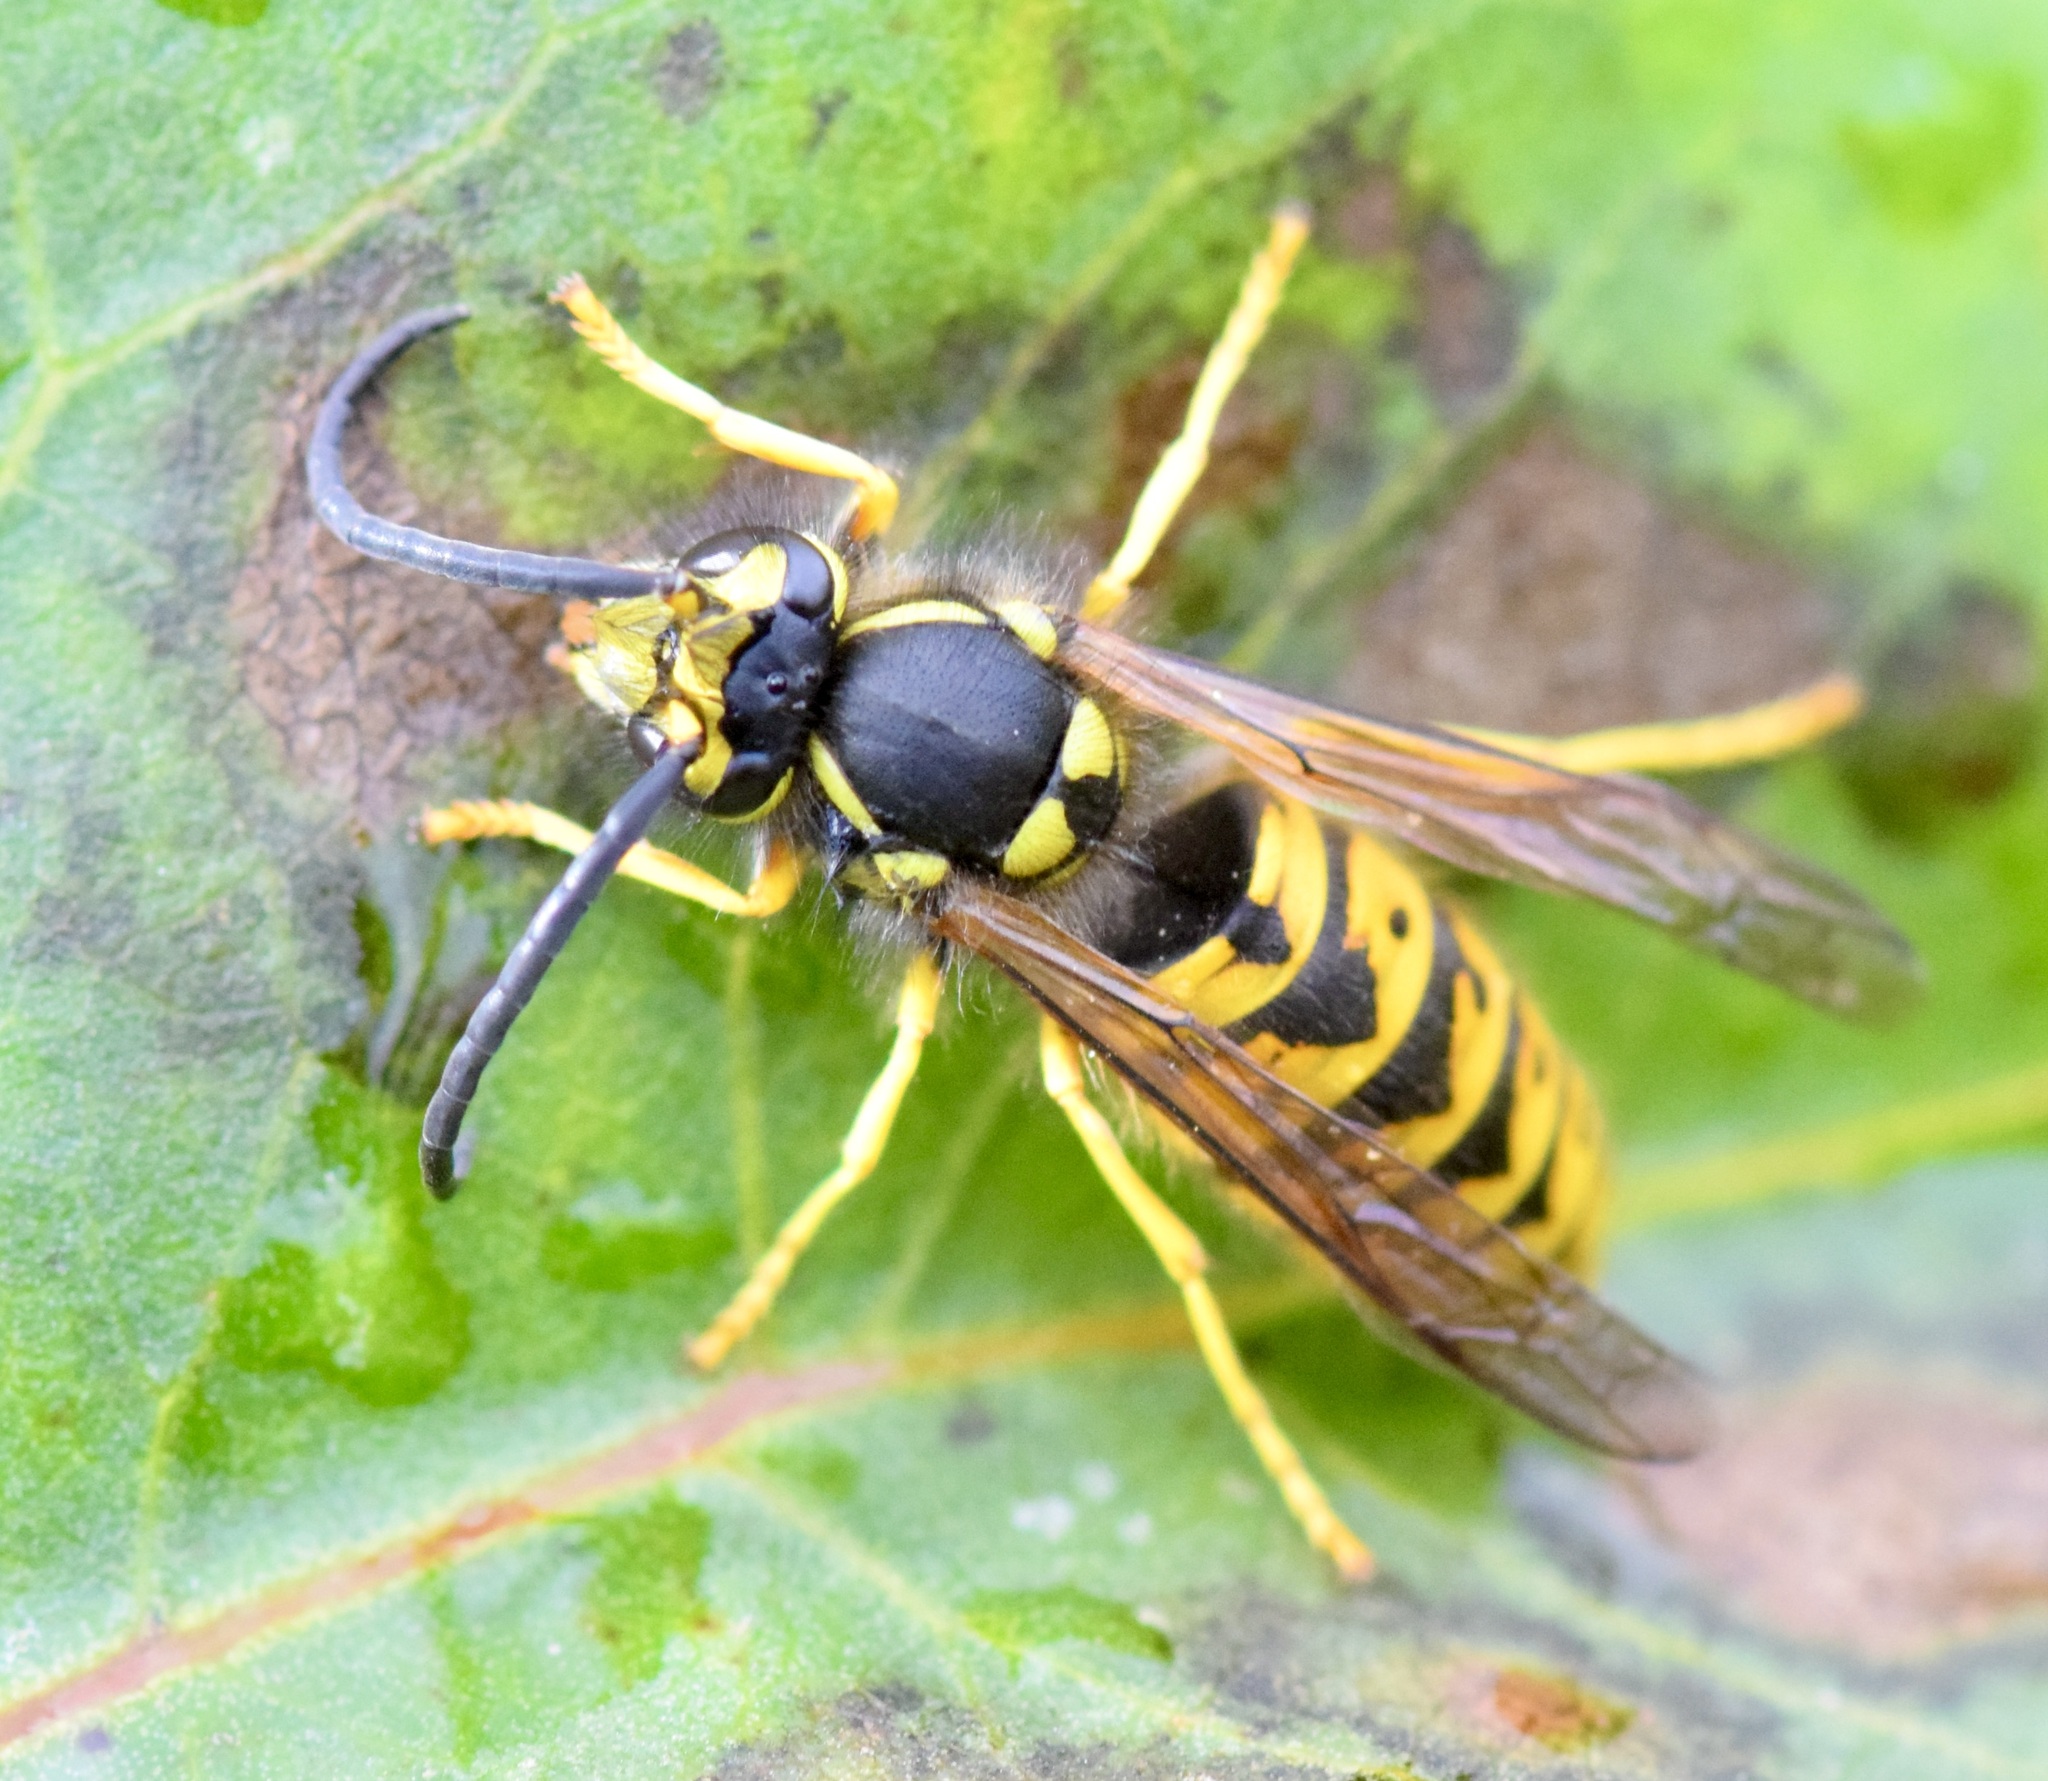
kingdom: Animalia
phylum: Arthropoda
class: Insecta
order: Hymenoptera
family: Vespidae
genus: Vespula
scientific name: Vespula germanica
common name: German wasp
